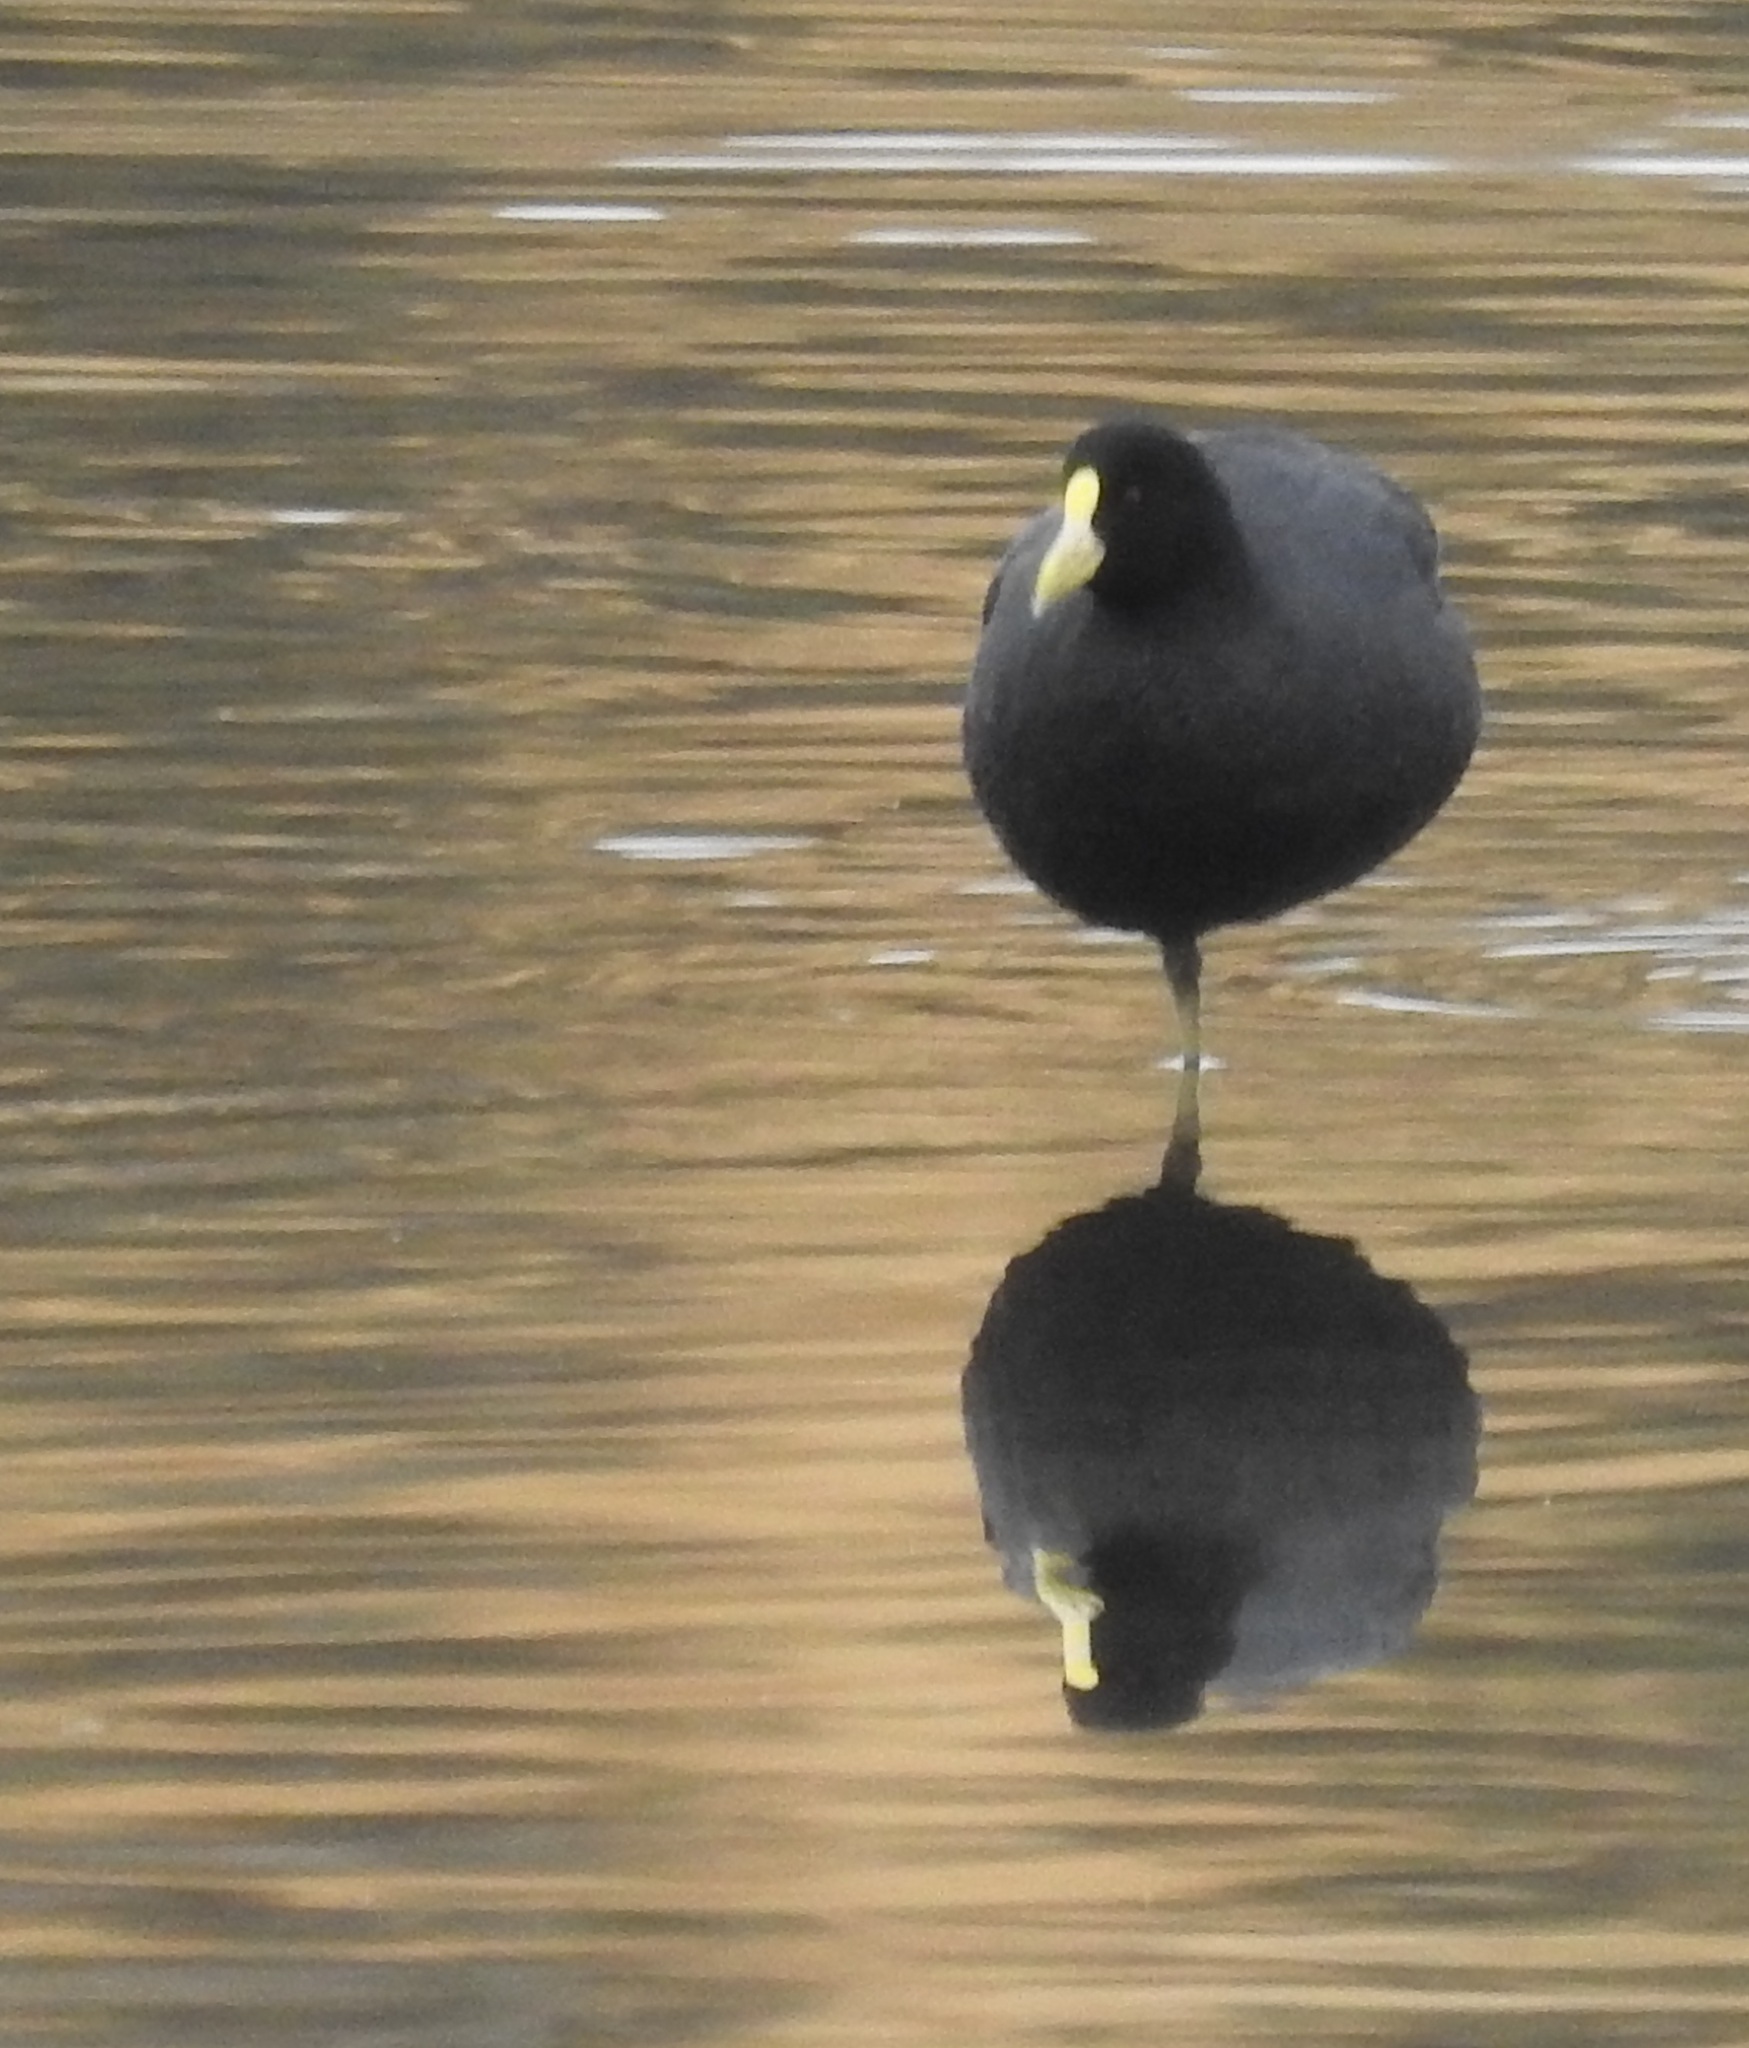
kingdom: Animalia
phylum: Chordata
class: Aves
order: Gruiformes
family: Rallidae
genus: Fulica
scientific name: Fulica leucoptera
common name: White-winged coot
